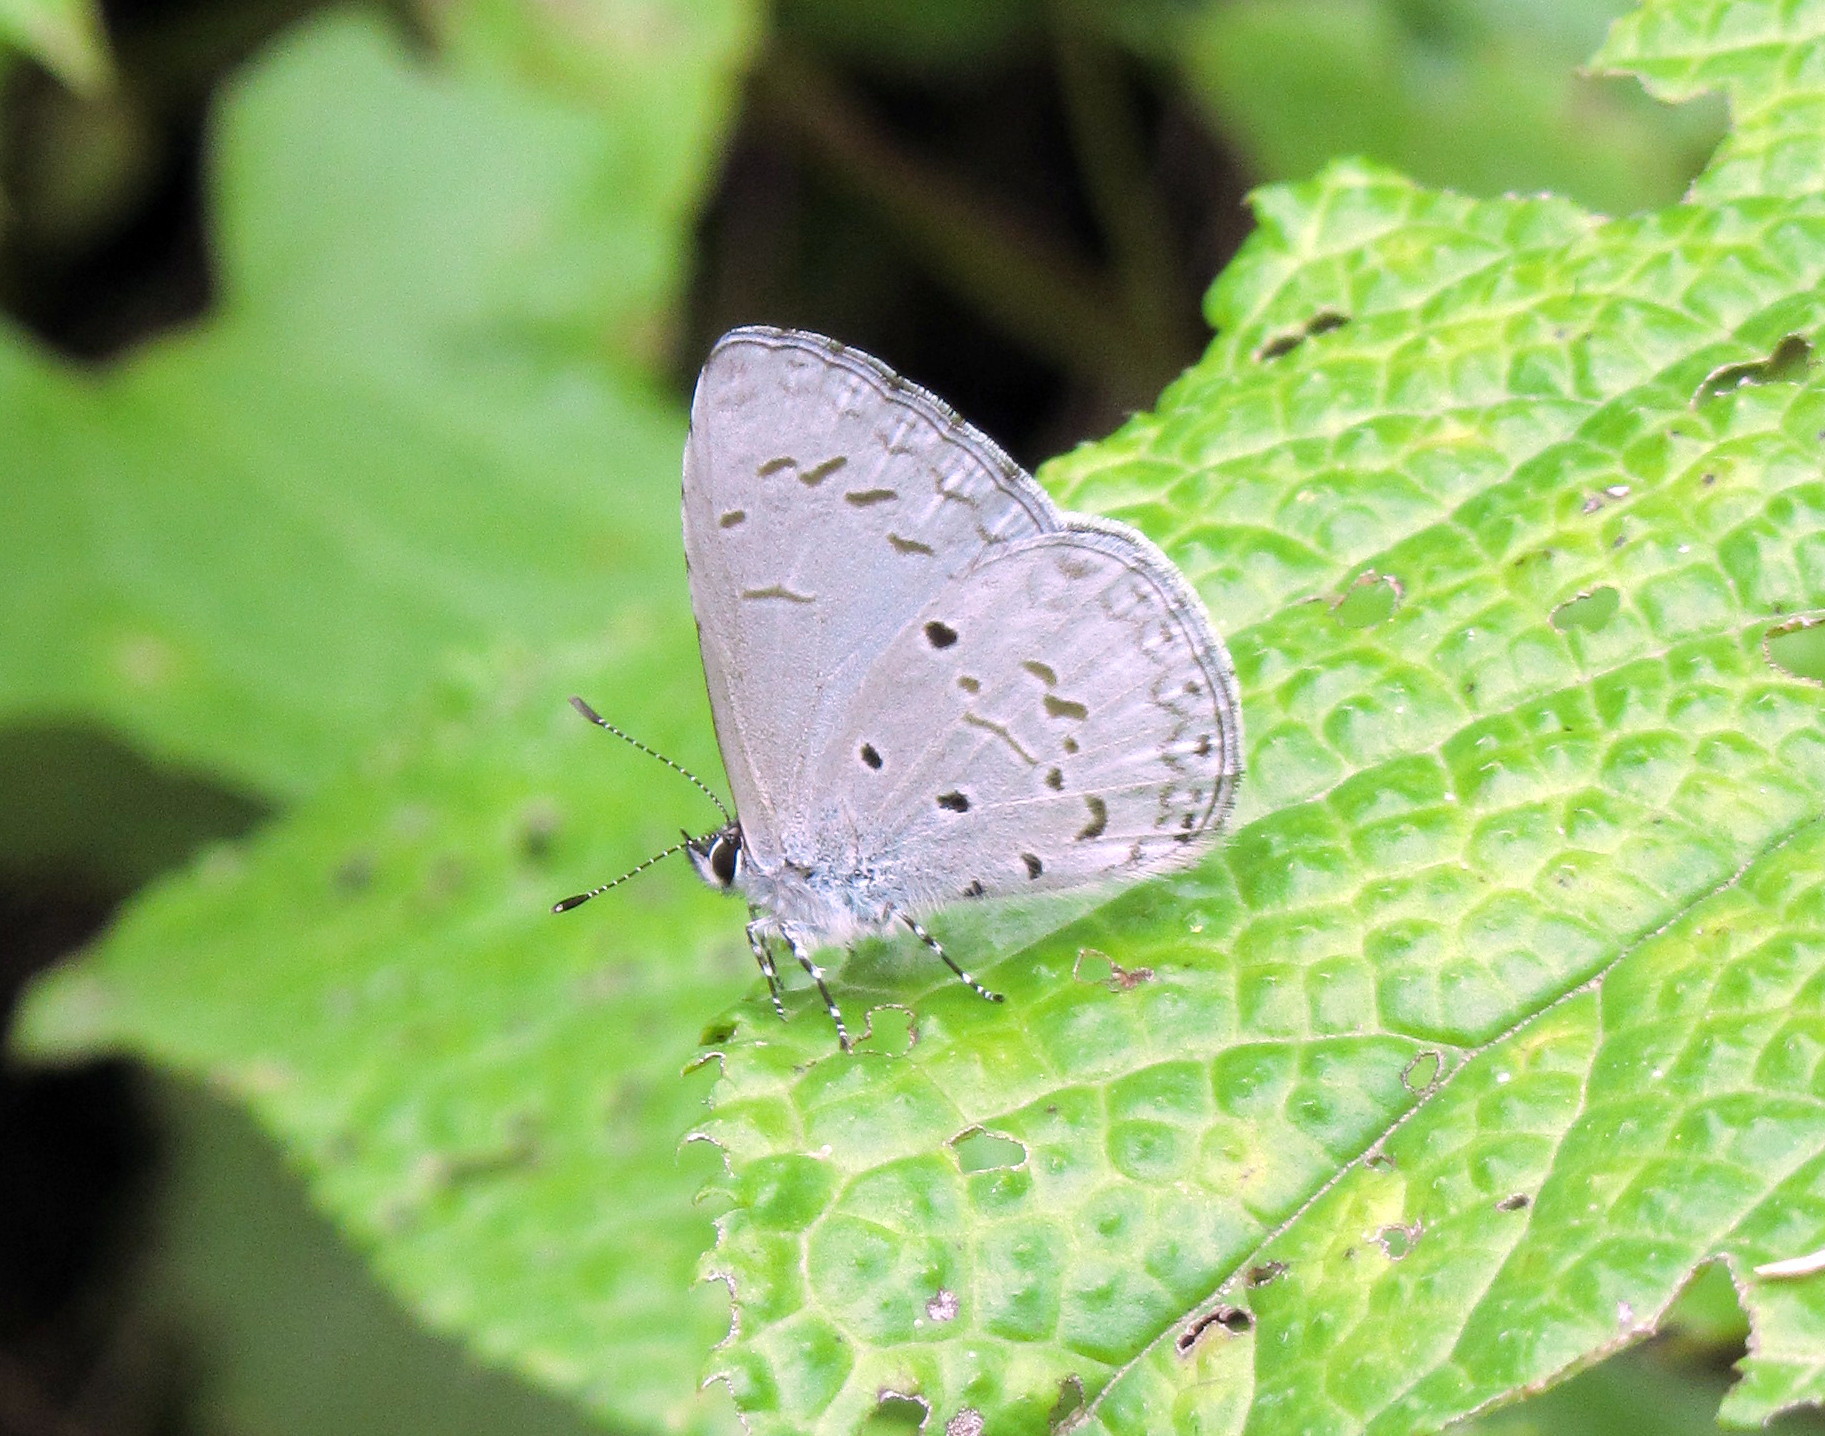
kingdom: Animalia
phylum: Arthropoda
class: Insecta
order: Lepidoptera
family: Lycaenidae
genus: Celastrina
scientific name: Celastrina lavendularis
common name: Plain hedge blue
